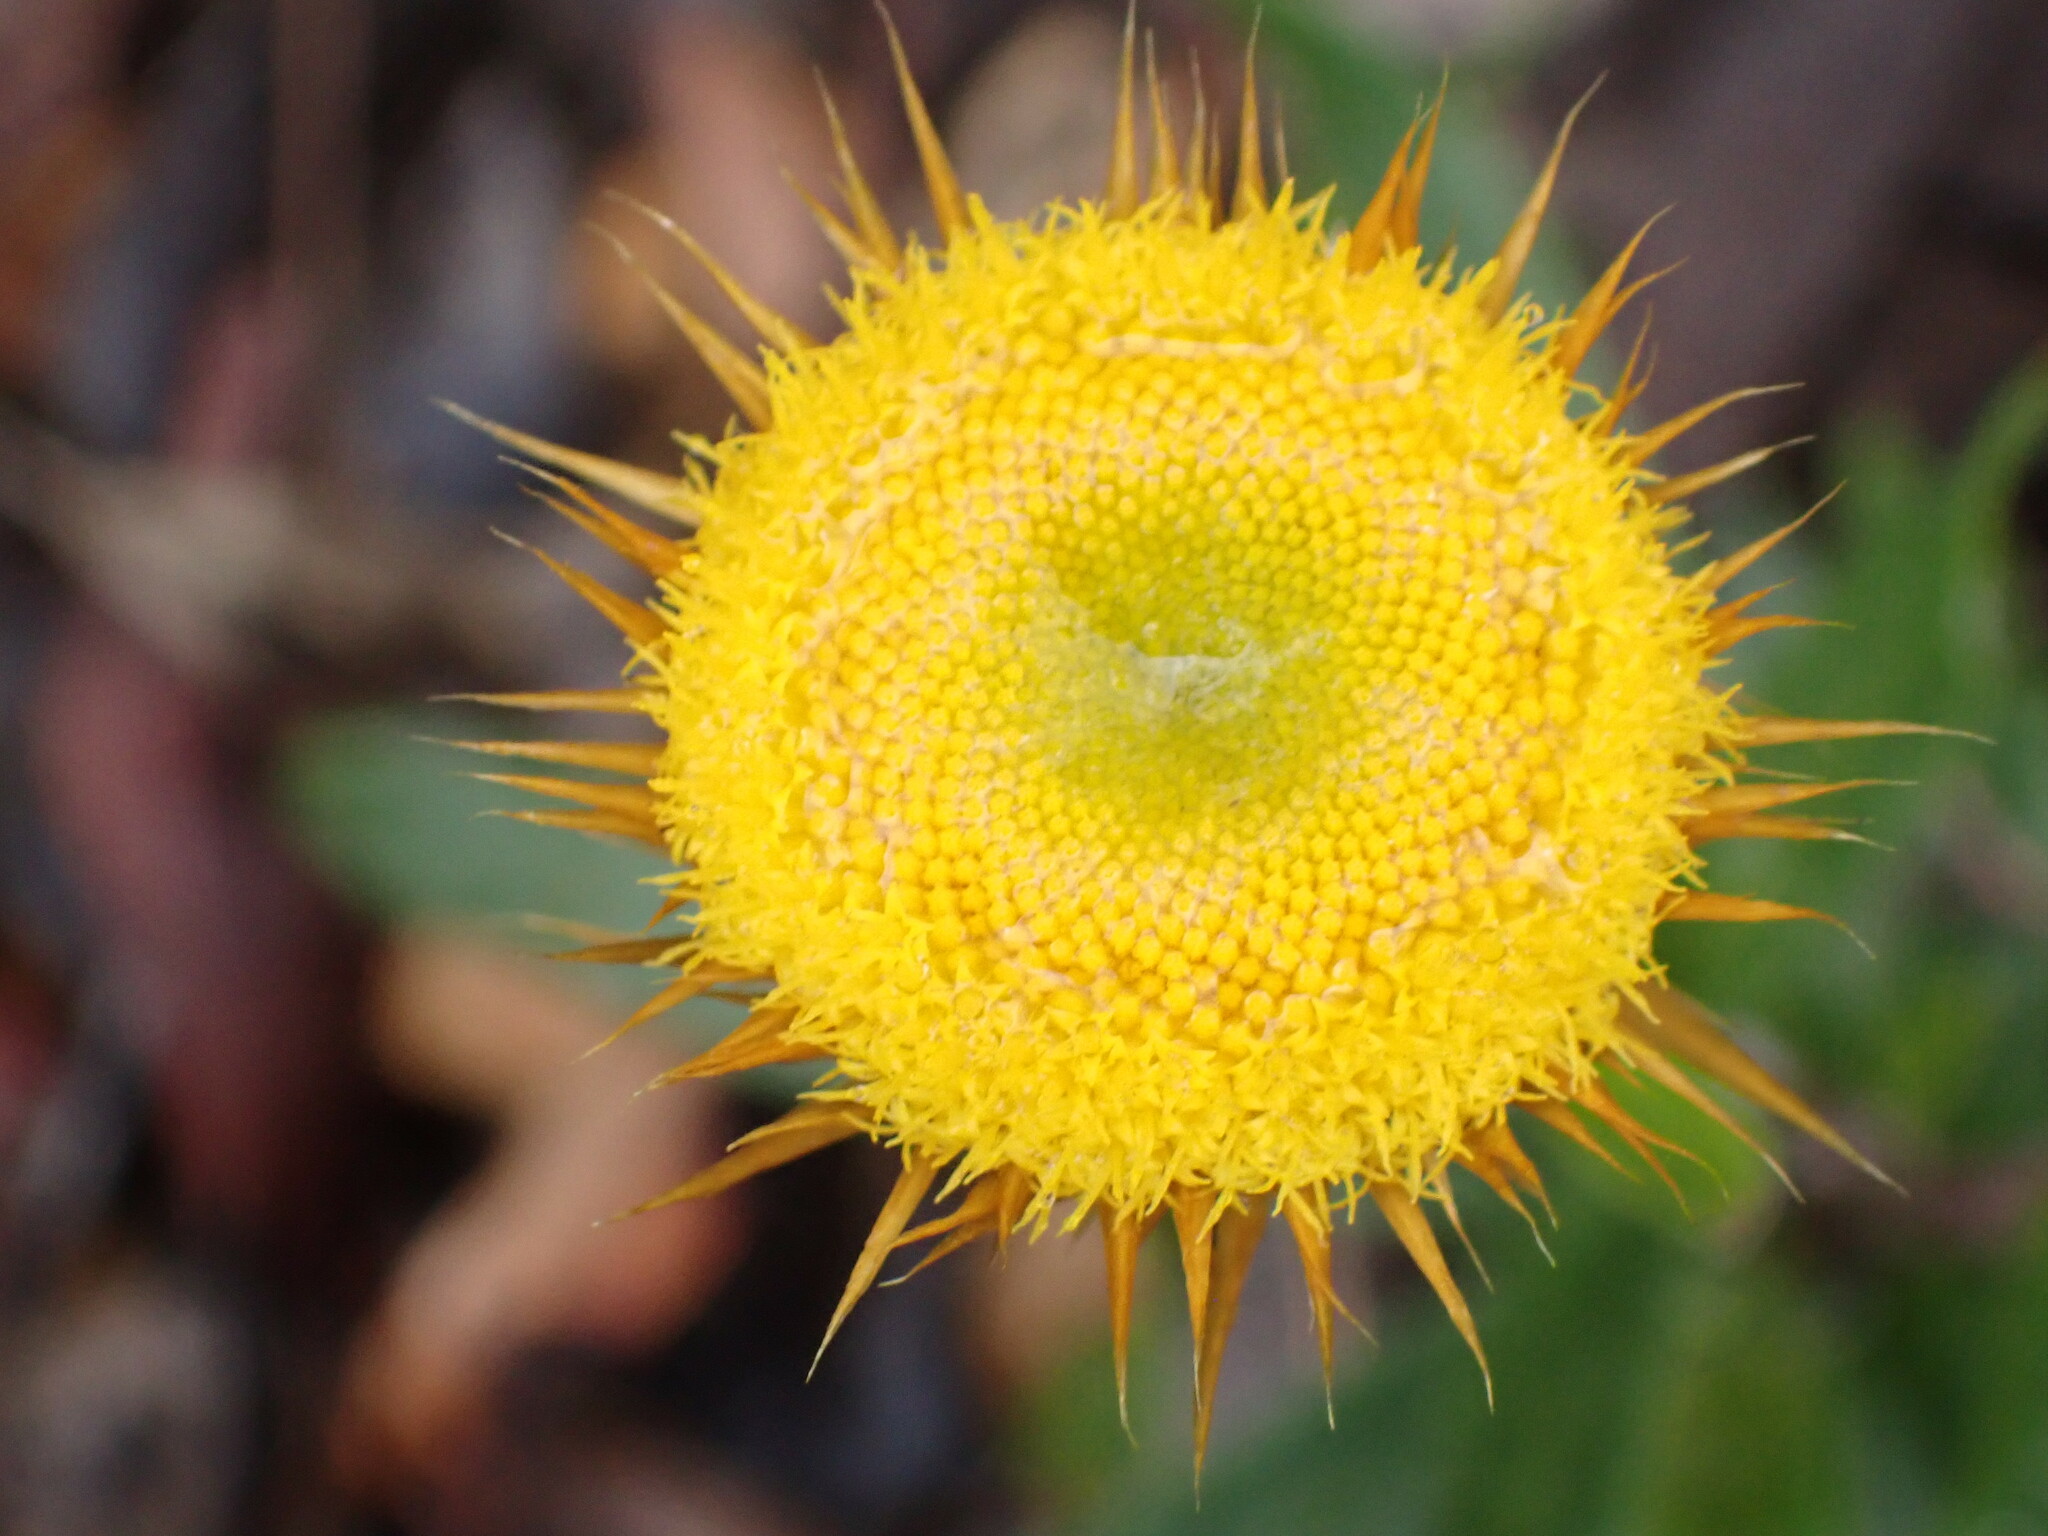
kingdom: Plantae
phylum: Tracheophyta
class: Magnoliopsida
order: Asterales
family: Asteraceae
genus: Coronidium
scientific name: Coronidium oxylepis
